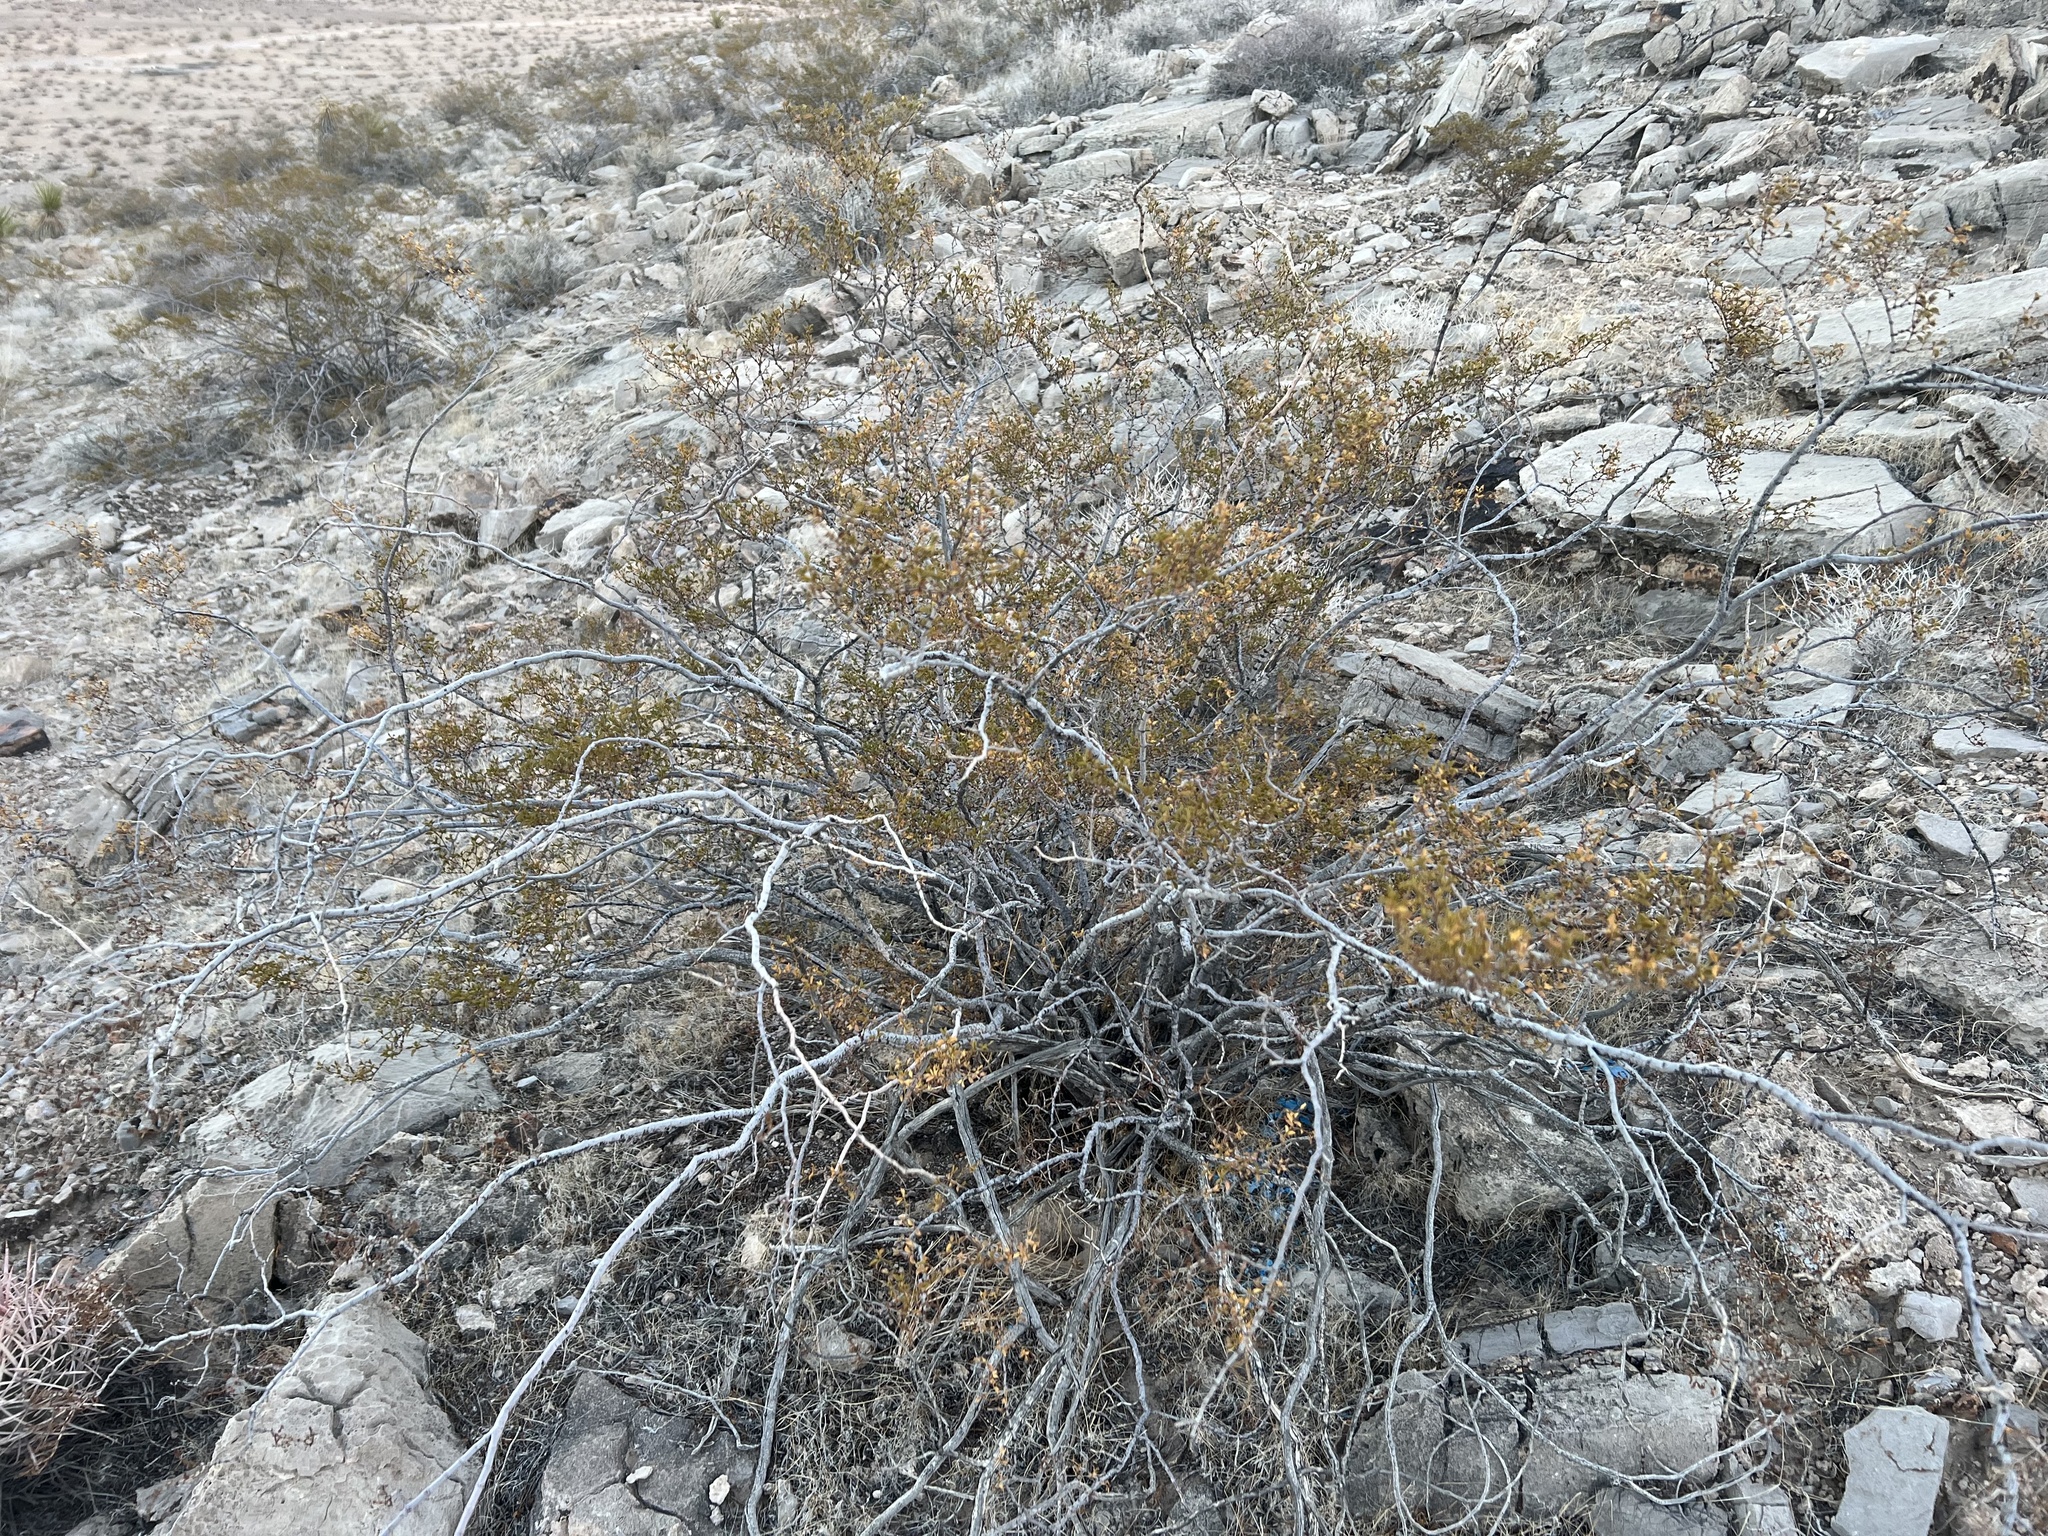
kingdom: Plantae
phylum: Tracheophyta
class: Magnoliopsida
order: Zygophyllales
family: Zygophyllaceae
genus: Larrea
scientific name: Larrea tridentata
